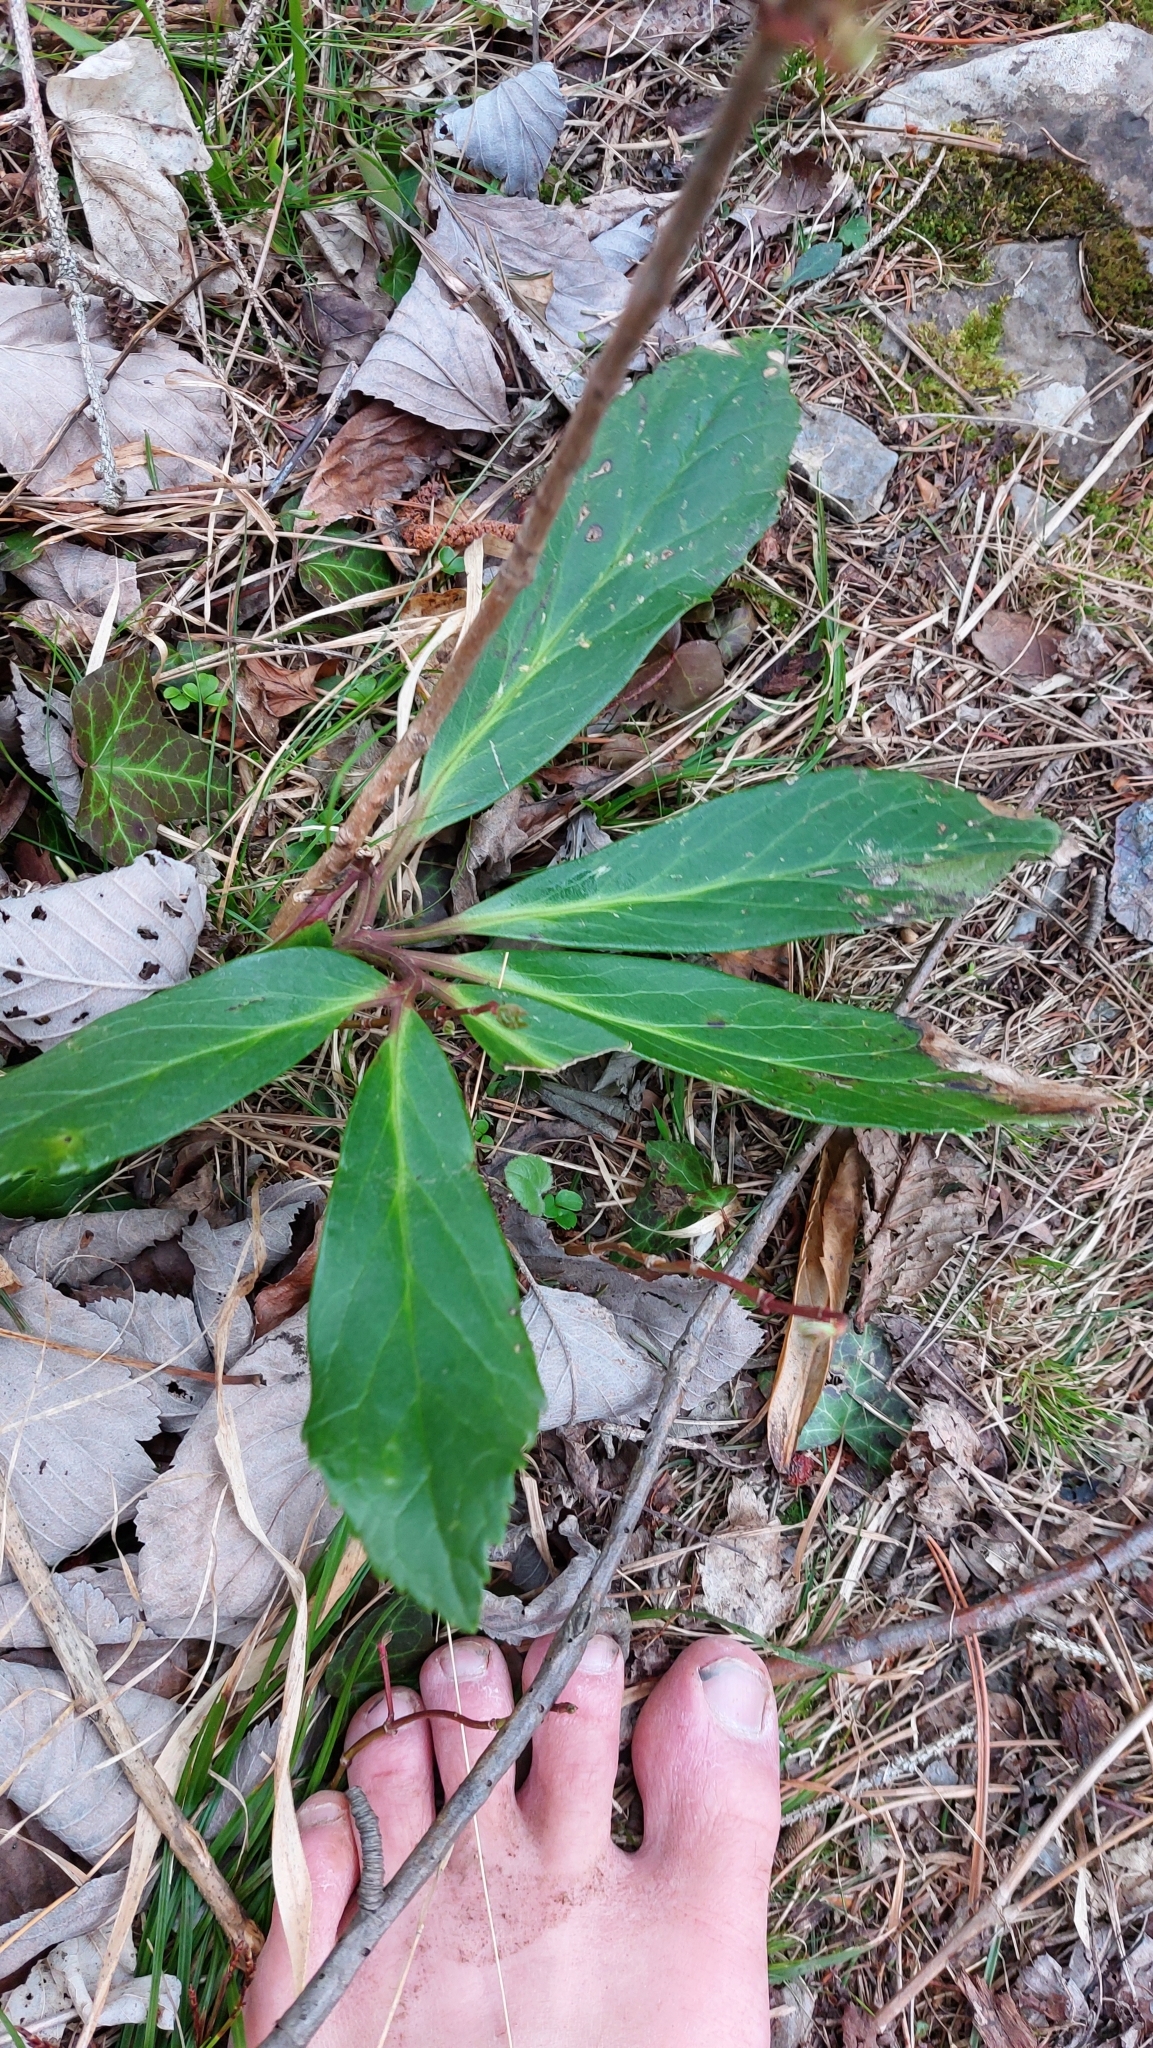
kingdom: Plantae
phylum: Tracheophyta
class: Magnoliopsida
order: Ranunculales
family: Ranunculaceae
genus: Helleborus
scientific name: Helleborus niger
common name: Black hellebore
